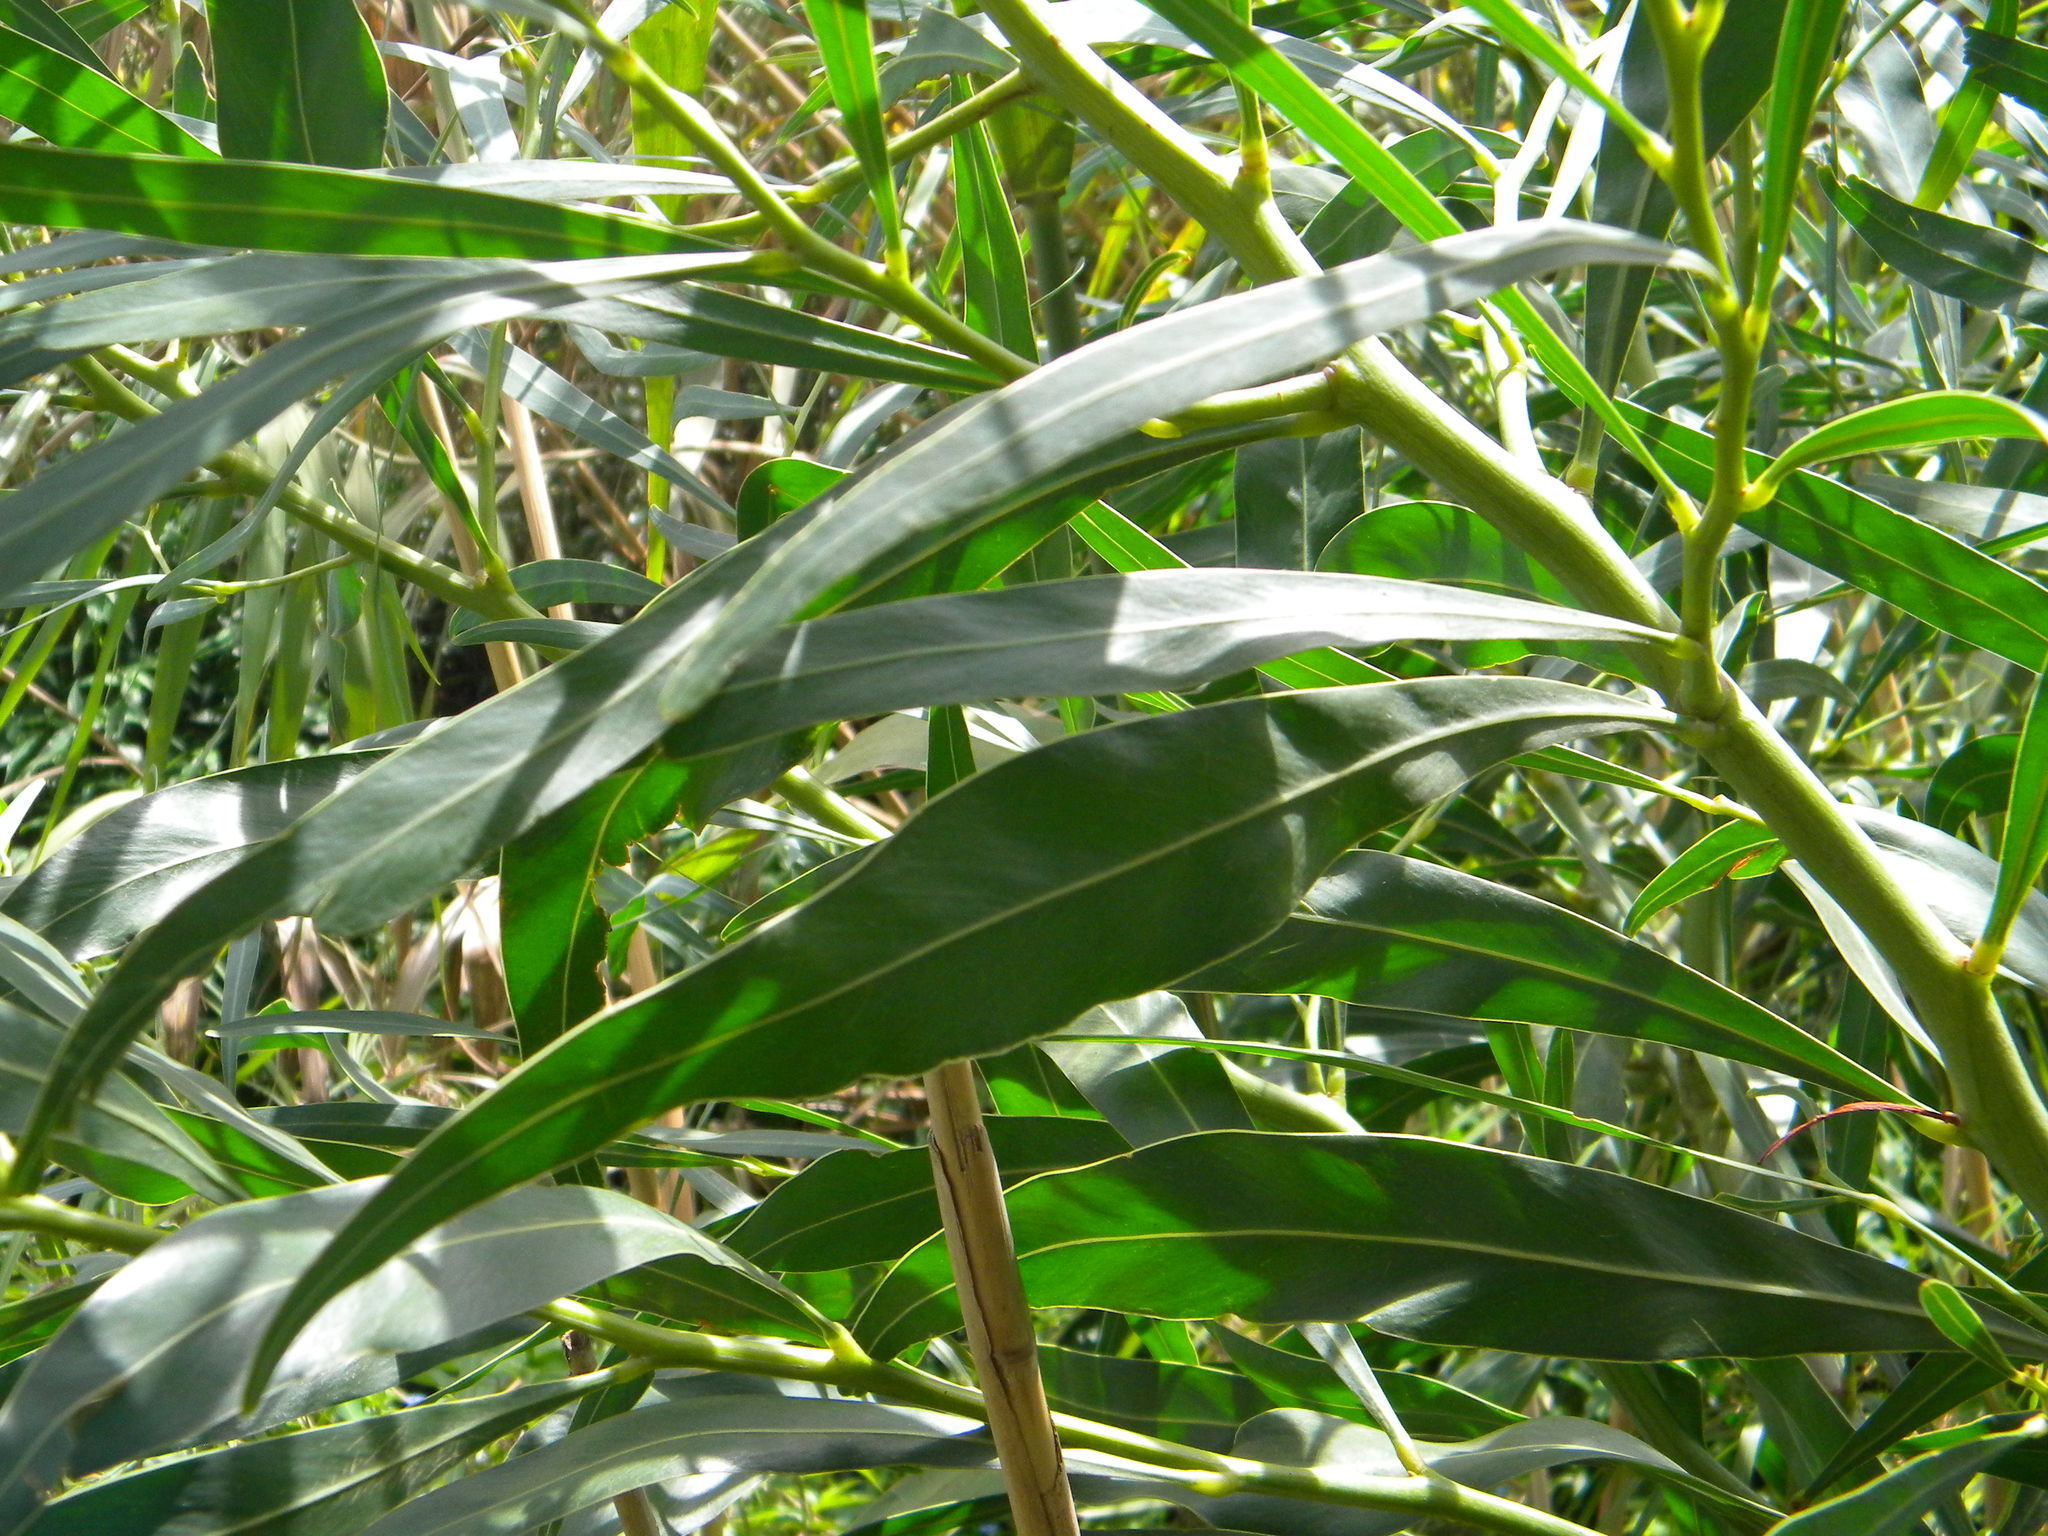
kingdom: Plantae
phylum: Tracheophyta
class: Magnoliopsida
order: Fabales
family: Fabaceae
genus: Acacia
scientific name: Acacia saligna
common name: Orange wattle
